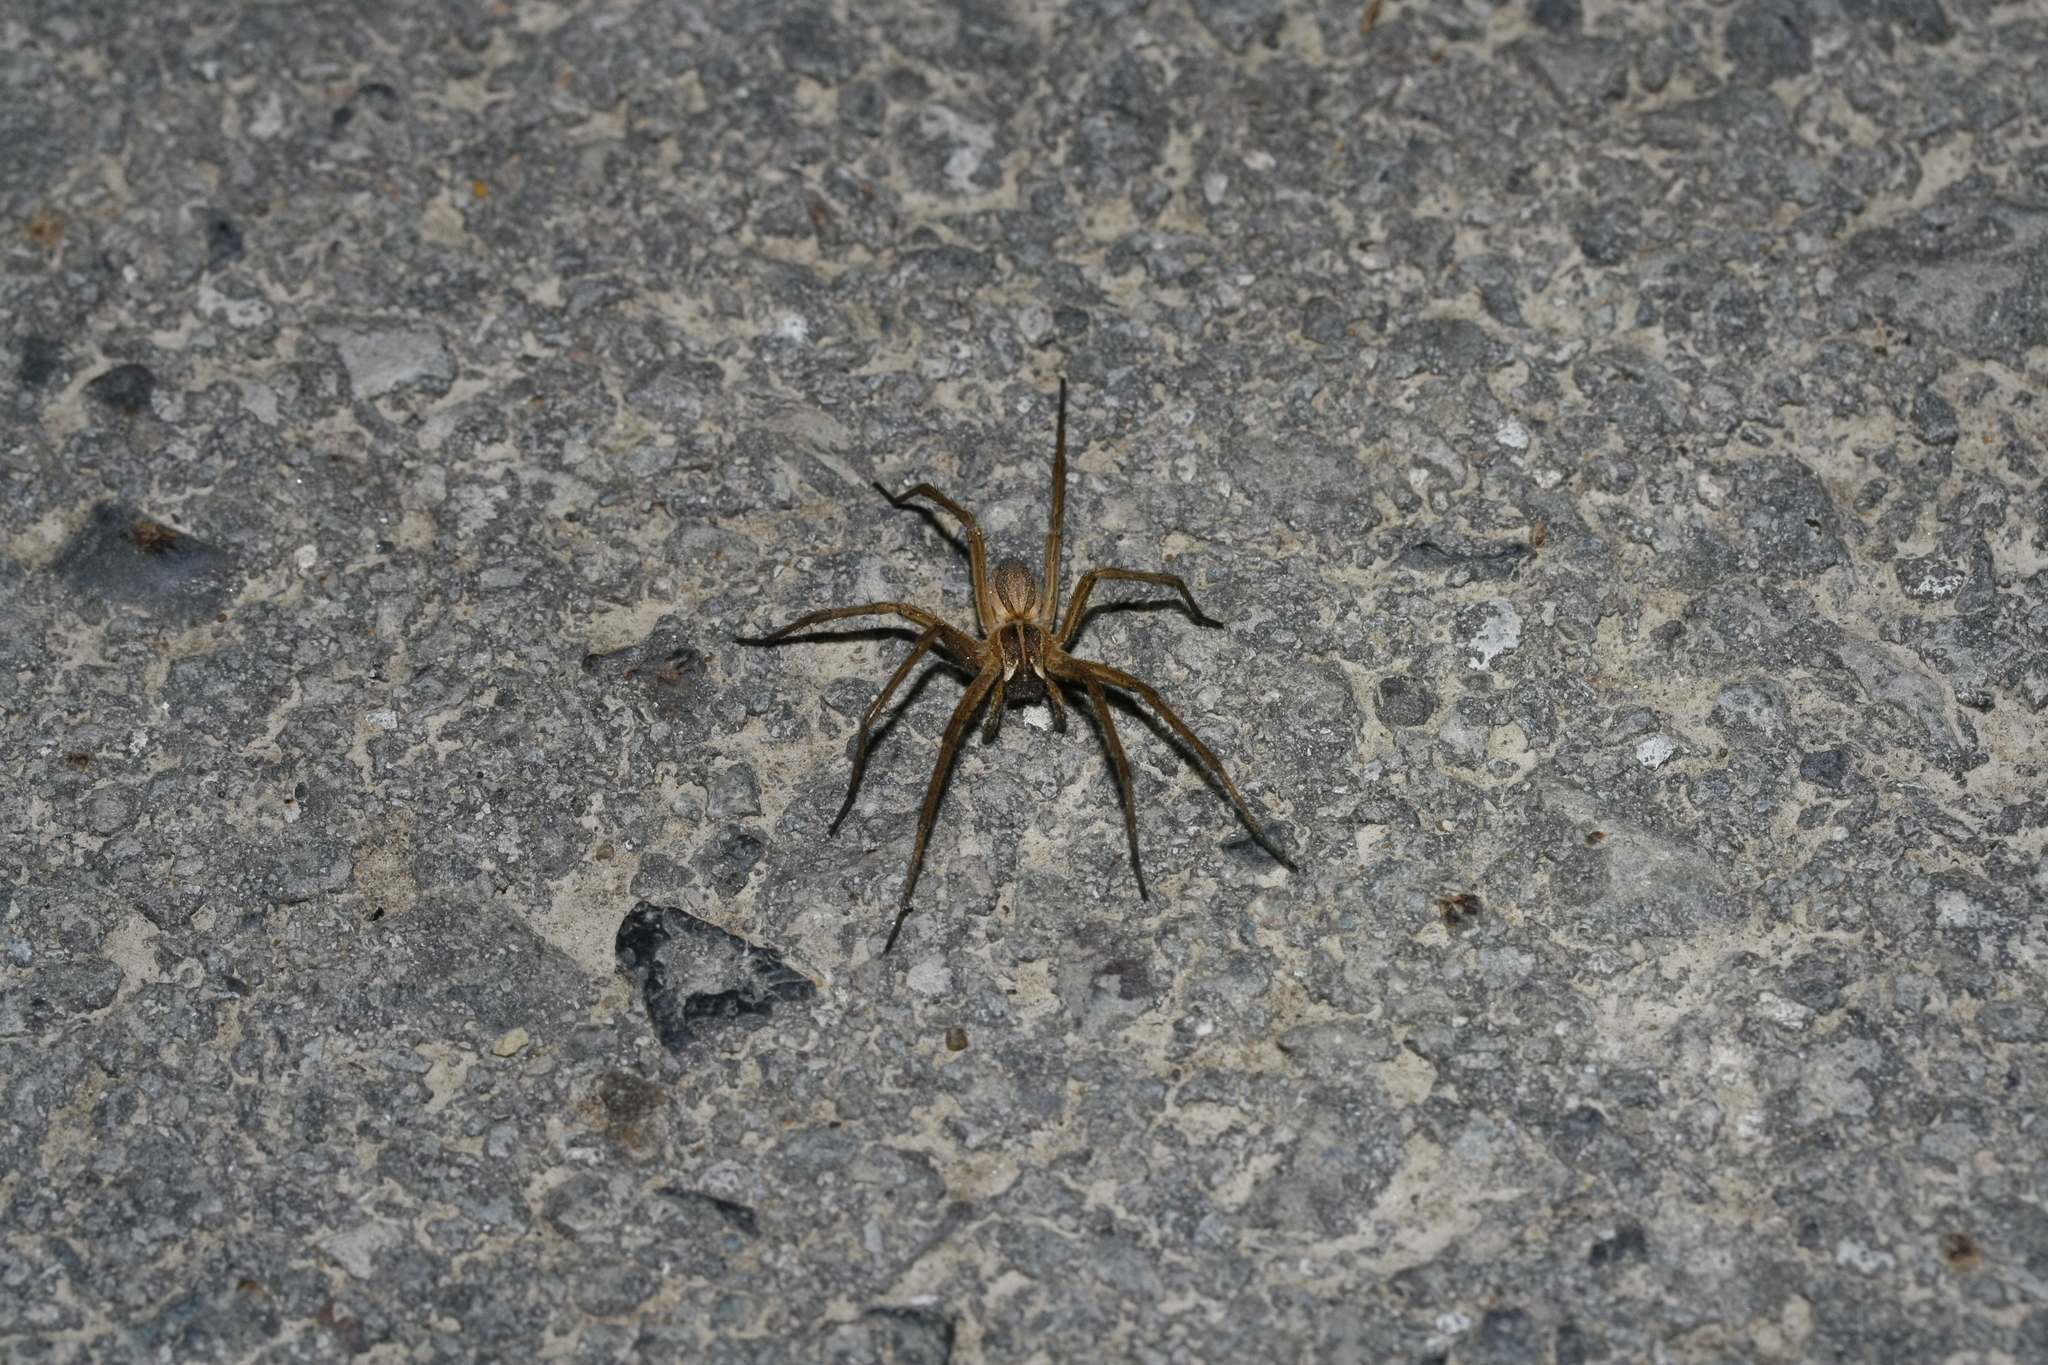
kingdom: Animalia
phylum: Arthropoda
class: Arachnida
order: Araneae
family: Pisauridae
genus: Pisaura
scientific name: Pisaura mirabilis
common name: Tent spider
